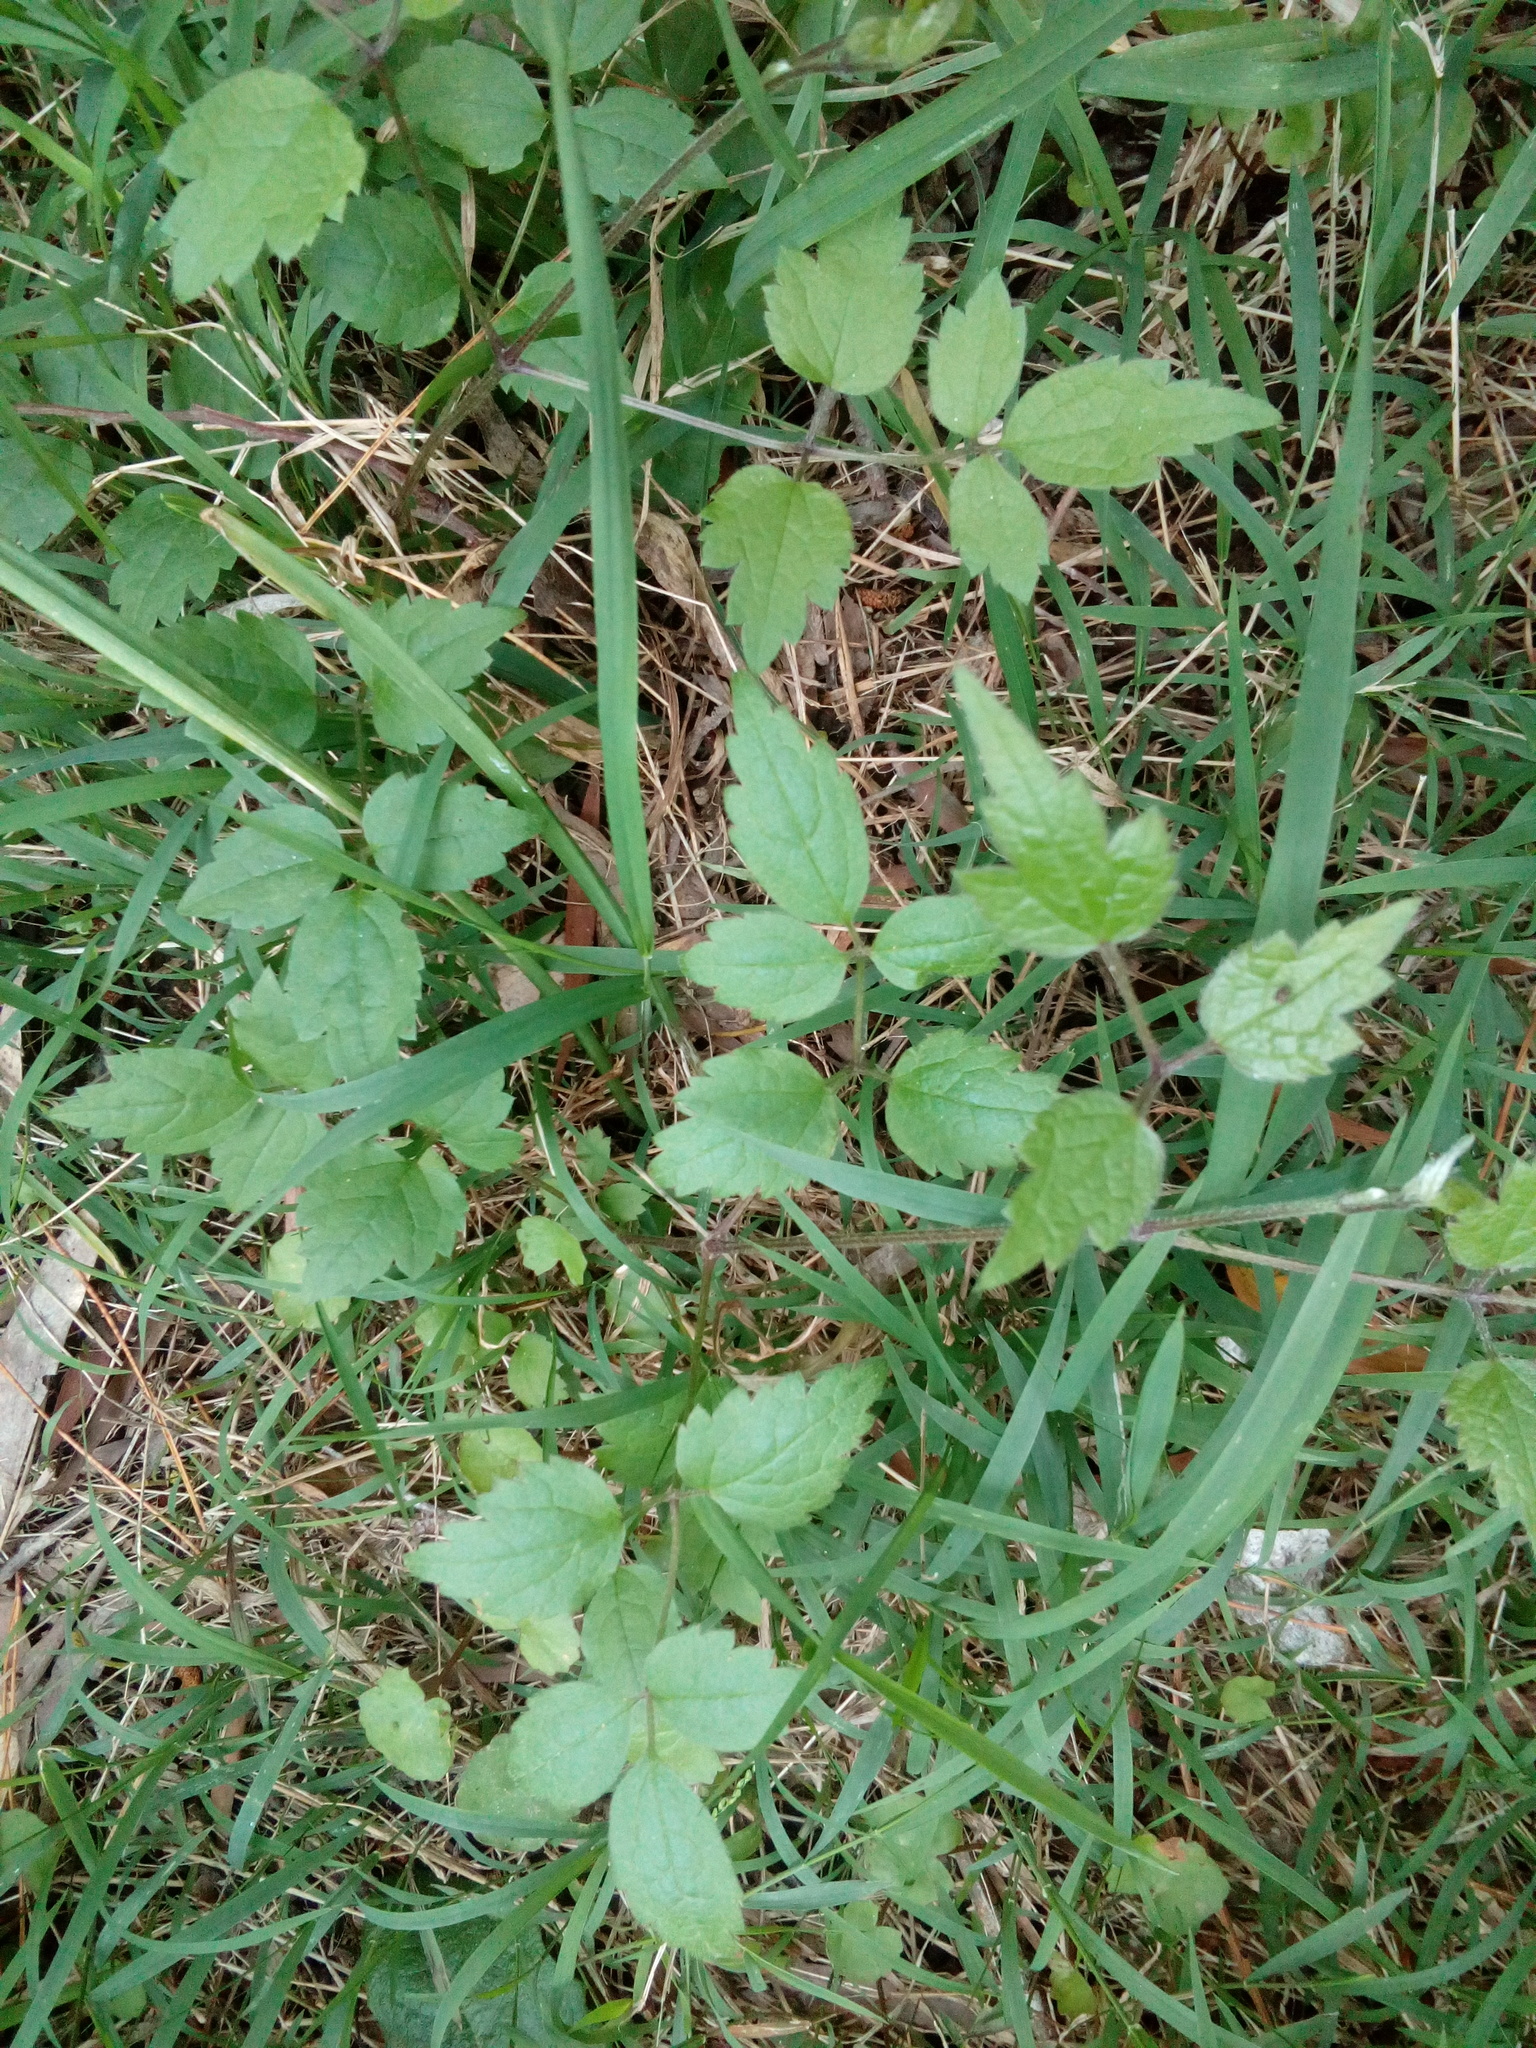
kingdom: Plantae
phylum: Tracheophyta
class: Magnoliopsida
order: Ranunculales
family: Ranunculaceae
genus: Clematis
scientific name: Clematis vitalba
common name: Evergreen clematis
